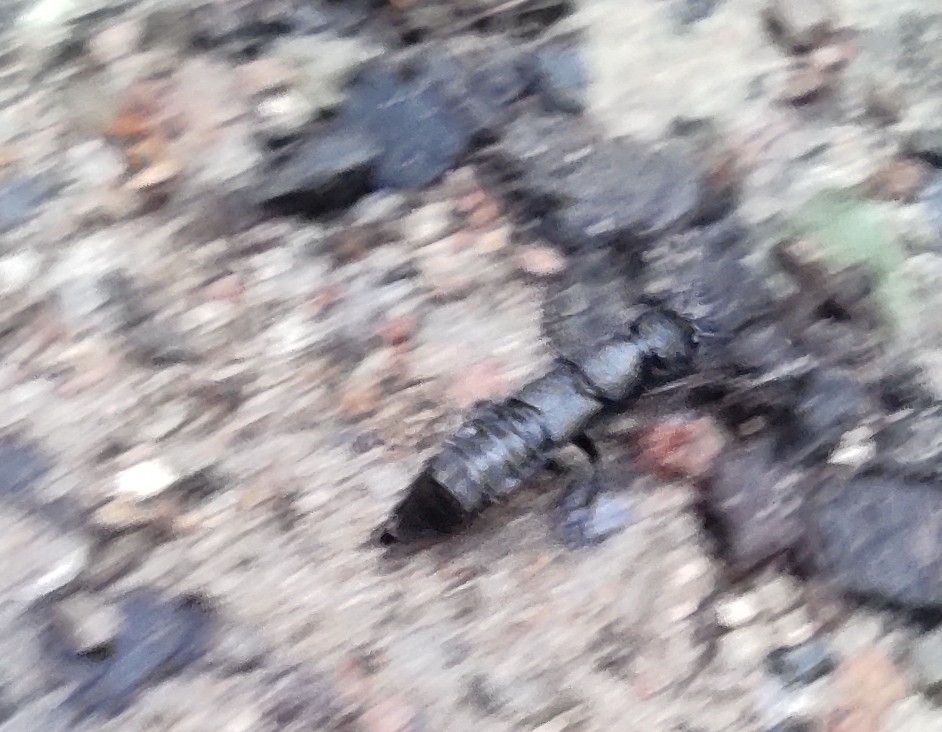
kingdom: Animalia
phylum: Arthropoda
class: Insecta
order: Coleoptera
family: Staphylinidae
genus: Ocypus
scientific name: Ocypus olens
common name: Devil's coach-horse
